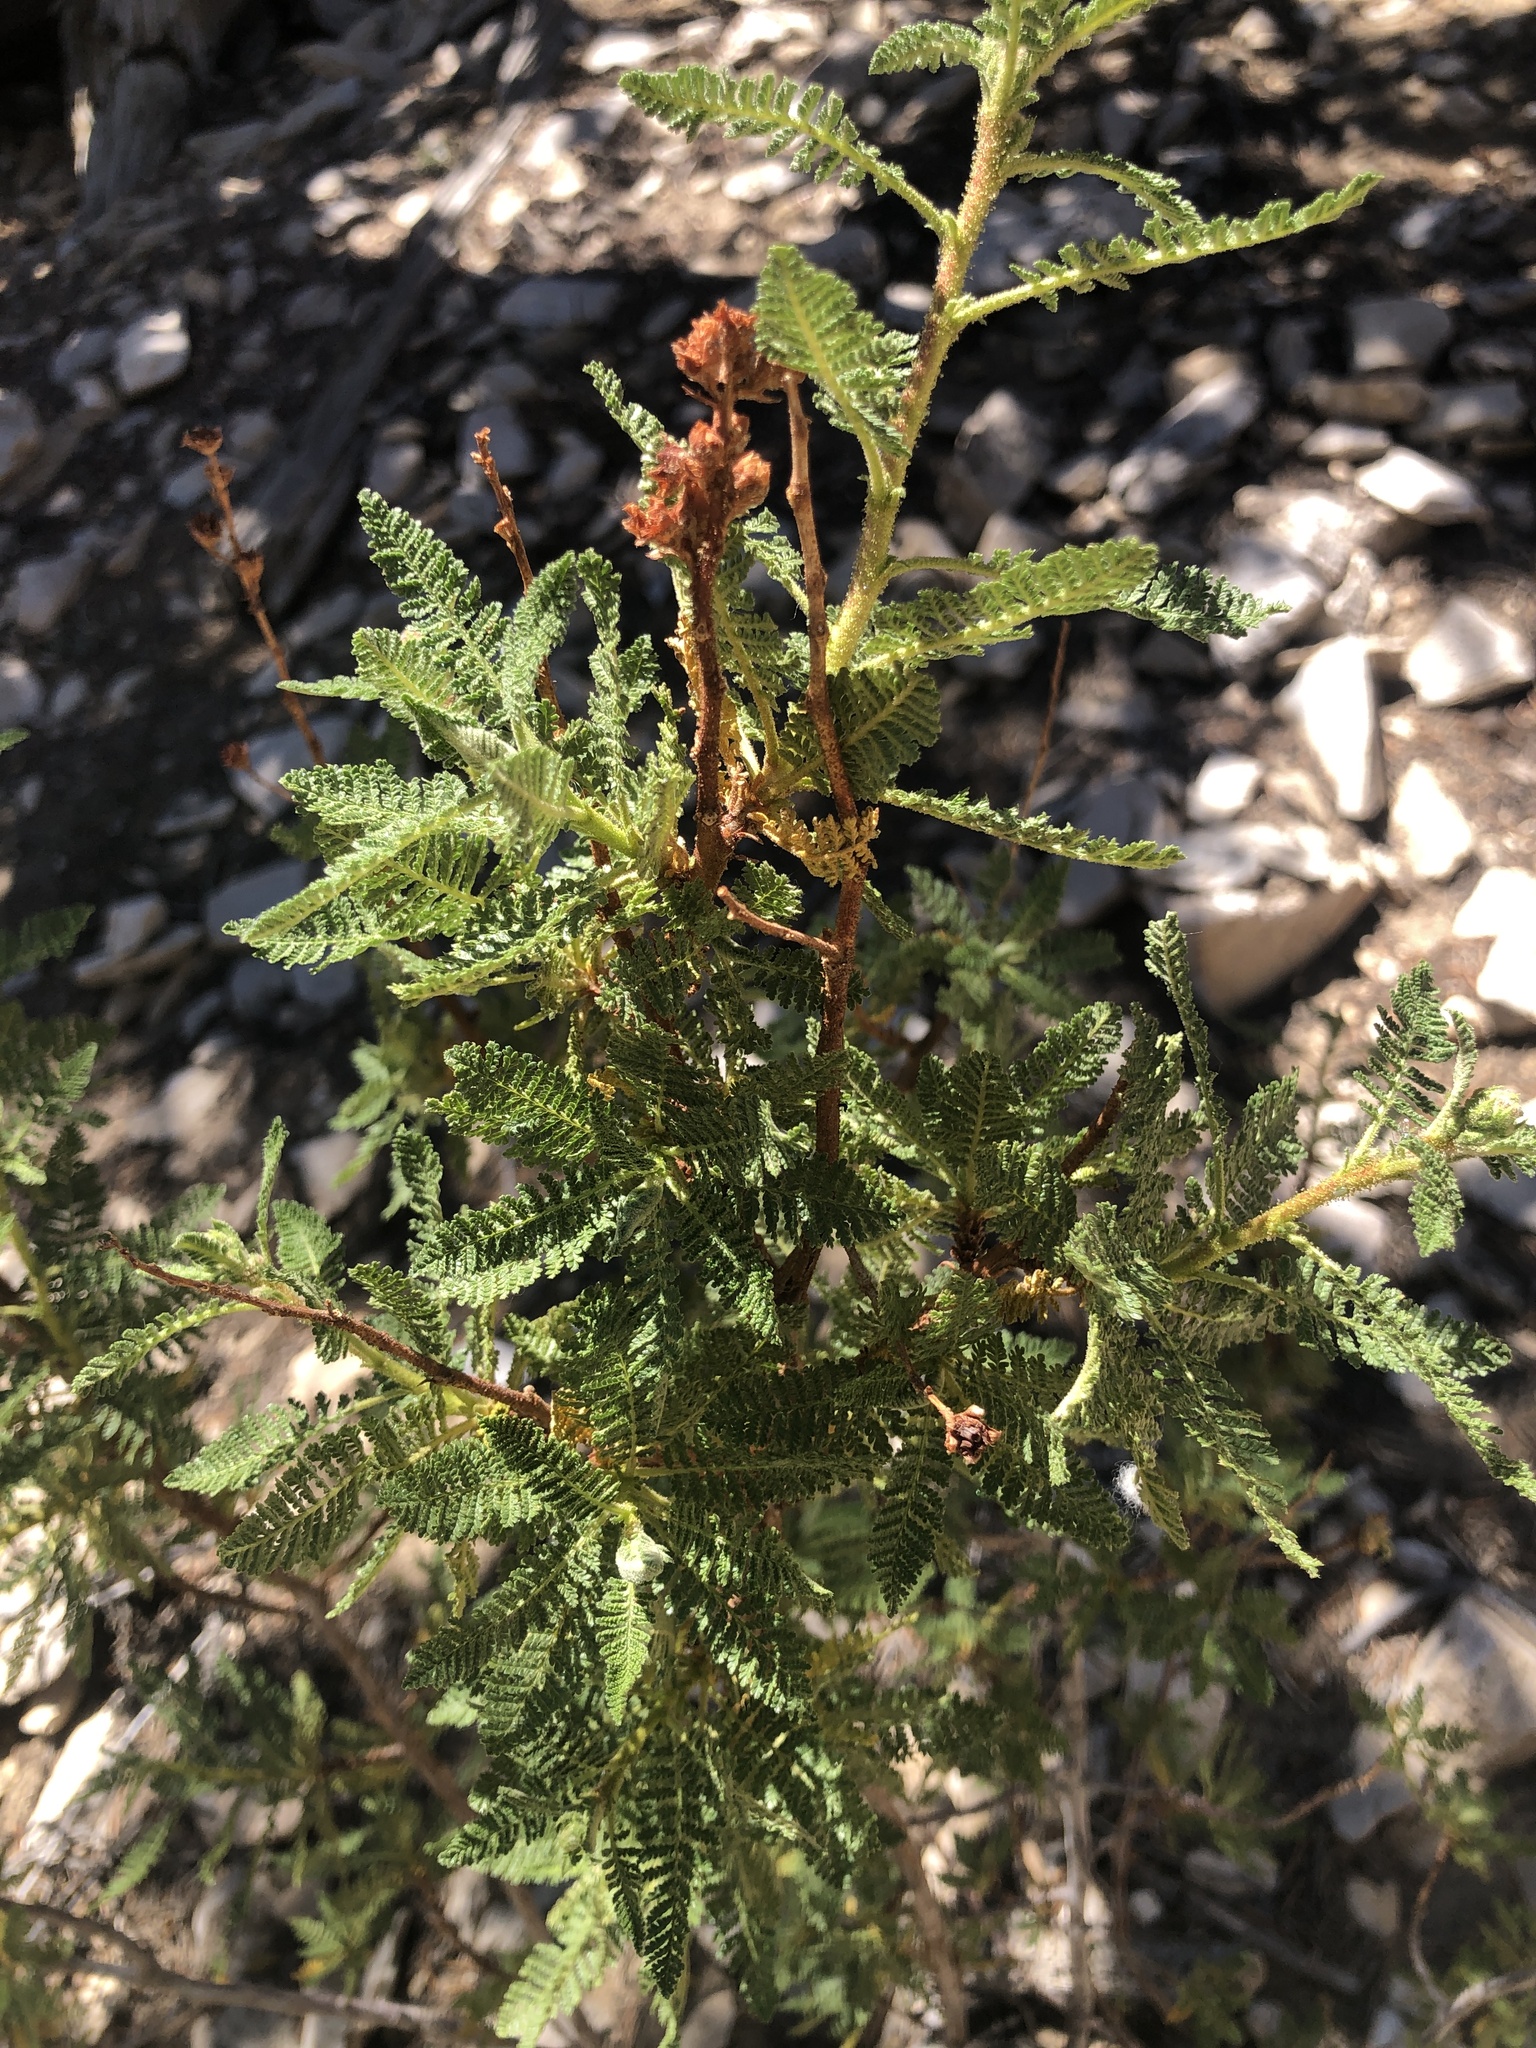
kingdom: Plantae
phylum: Tracheophyta
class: Magnoliopsida
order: Rosales
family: Rosaceae
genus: Chamaebatiaria
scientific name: Chamaebatiaria millefolium
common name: Fernbush
